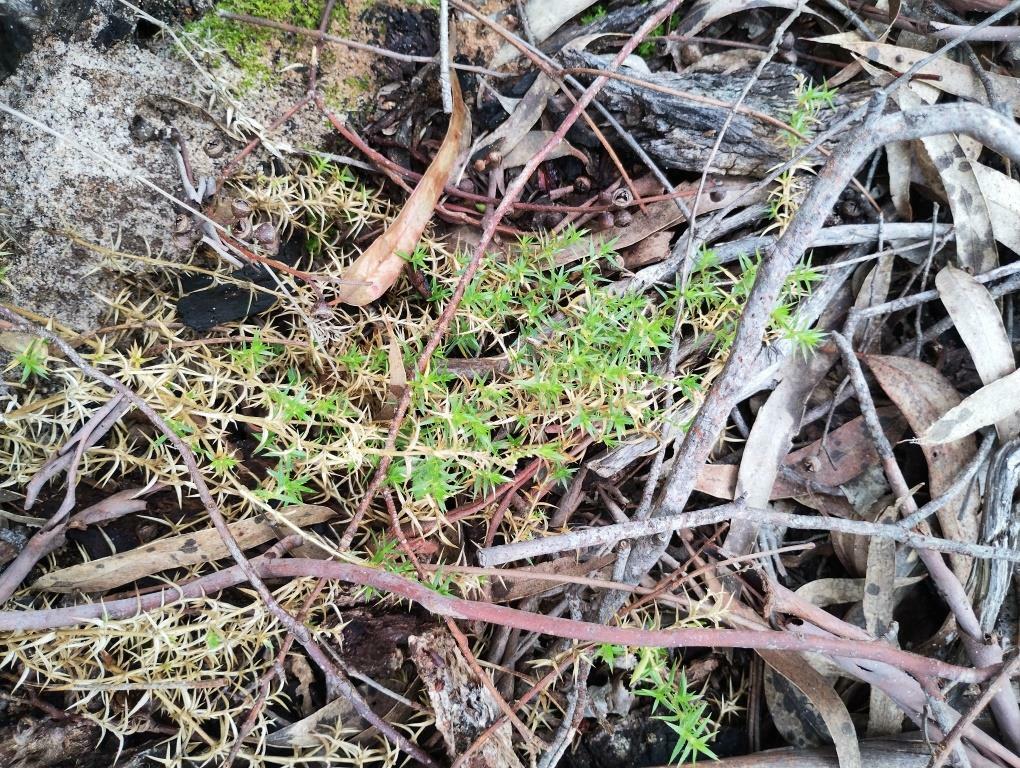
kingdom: Plantae
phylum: Tracheophyta
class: Magnoliopsida
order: Caryophyllales
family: Caryophyllaceae
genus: Stellaria
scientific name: Stellaria pungens
